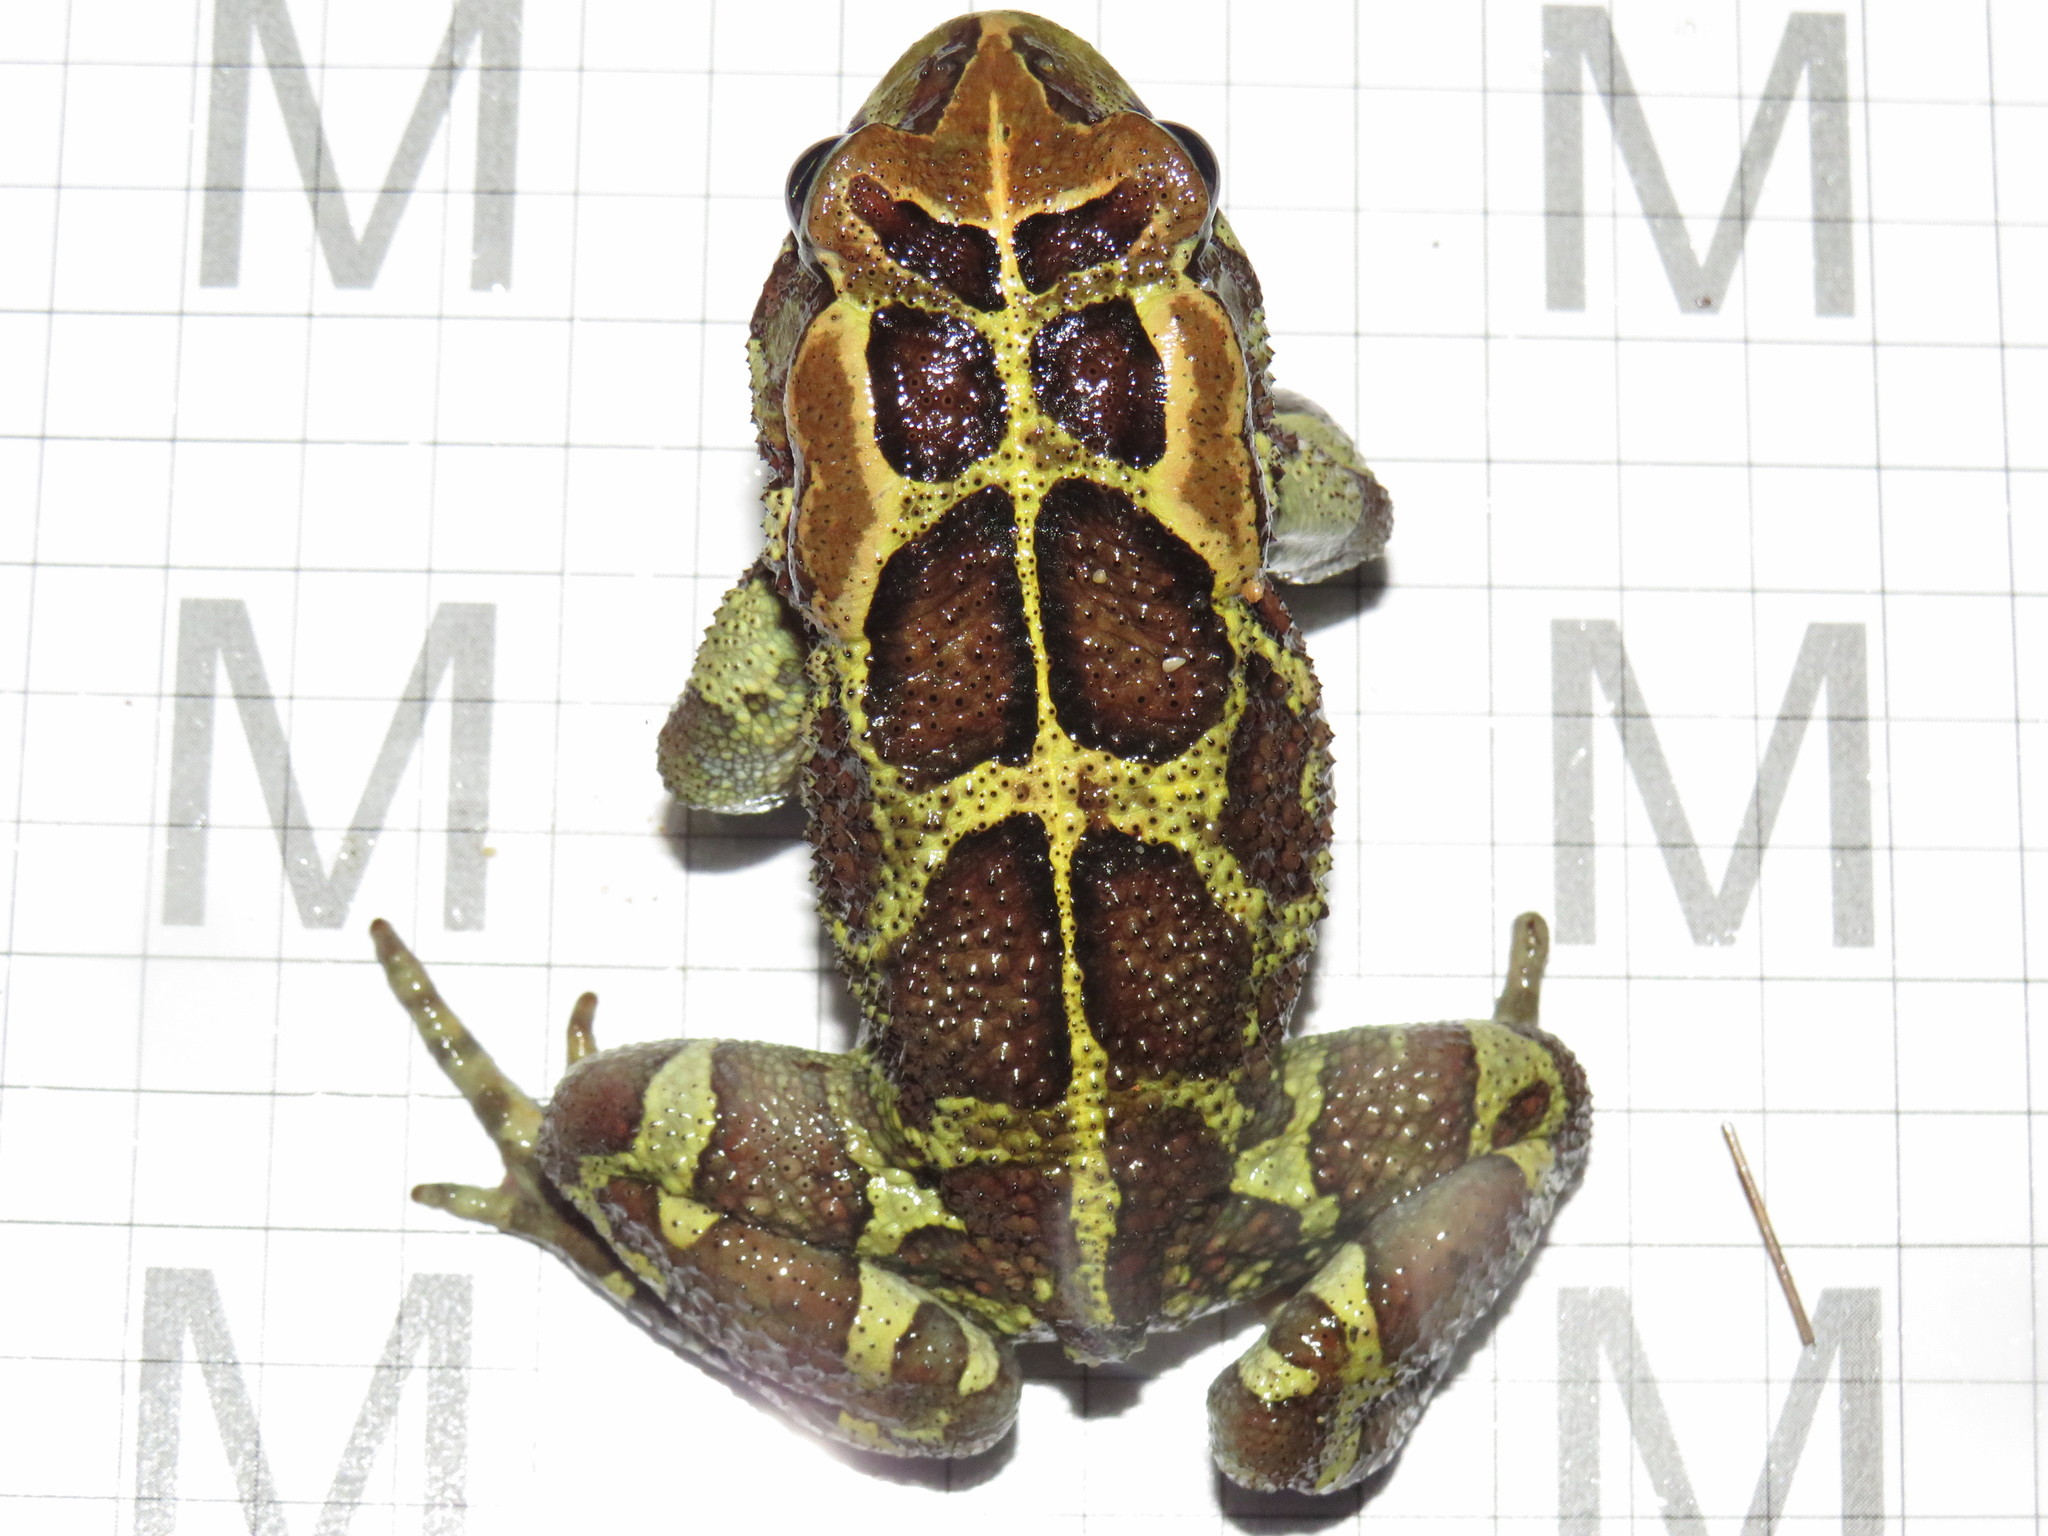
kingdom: Animalia
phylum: Chordata
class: Amphibia
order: Anura
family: Bufonidae
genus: Sclerophrys
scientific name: Sclerophrys pantherina
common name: Panther toad
